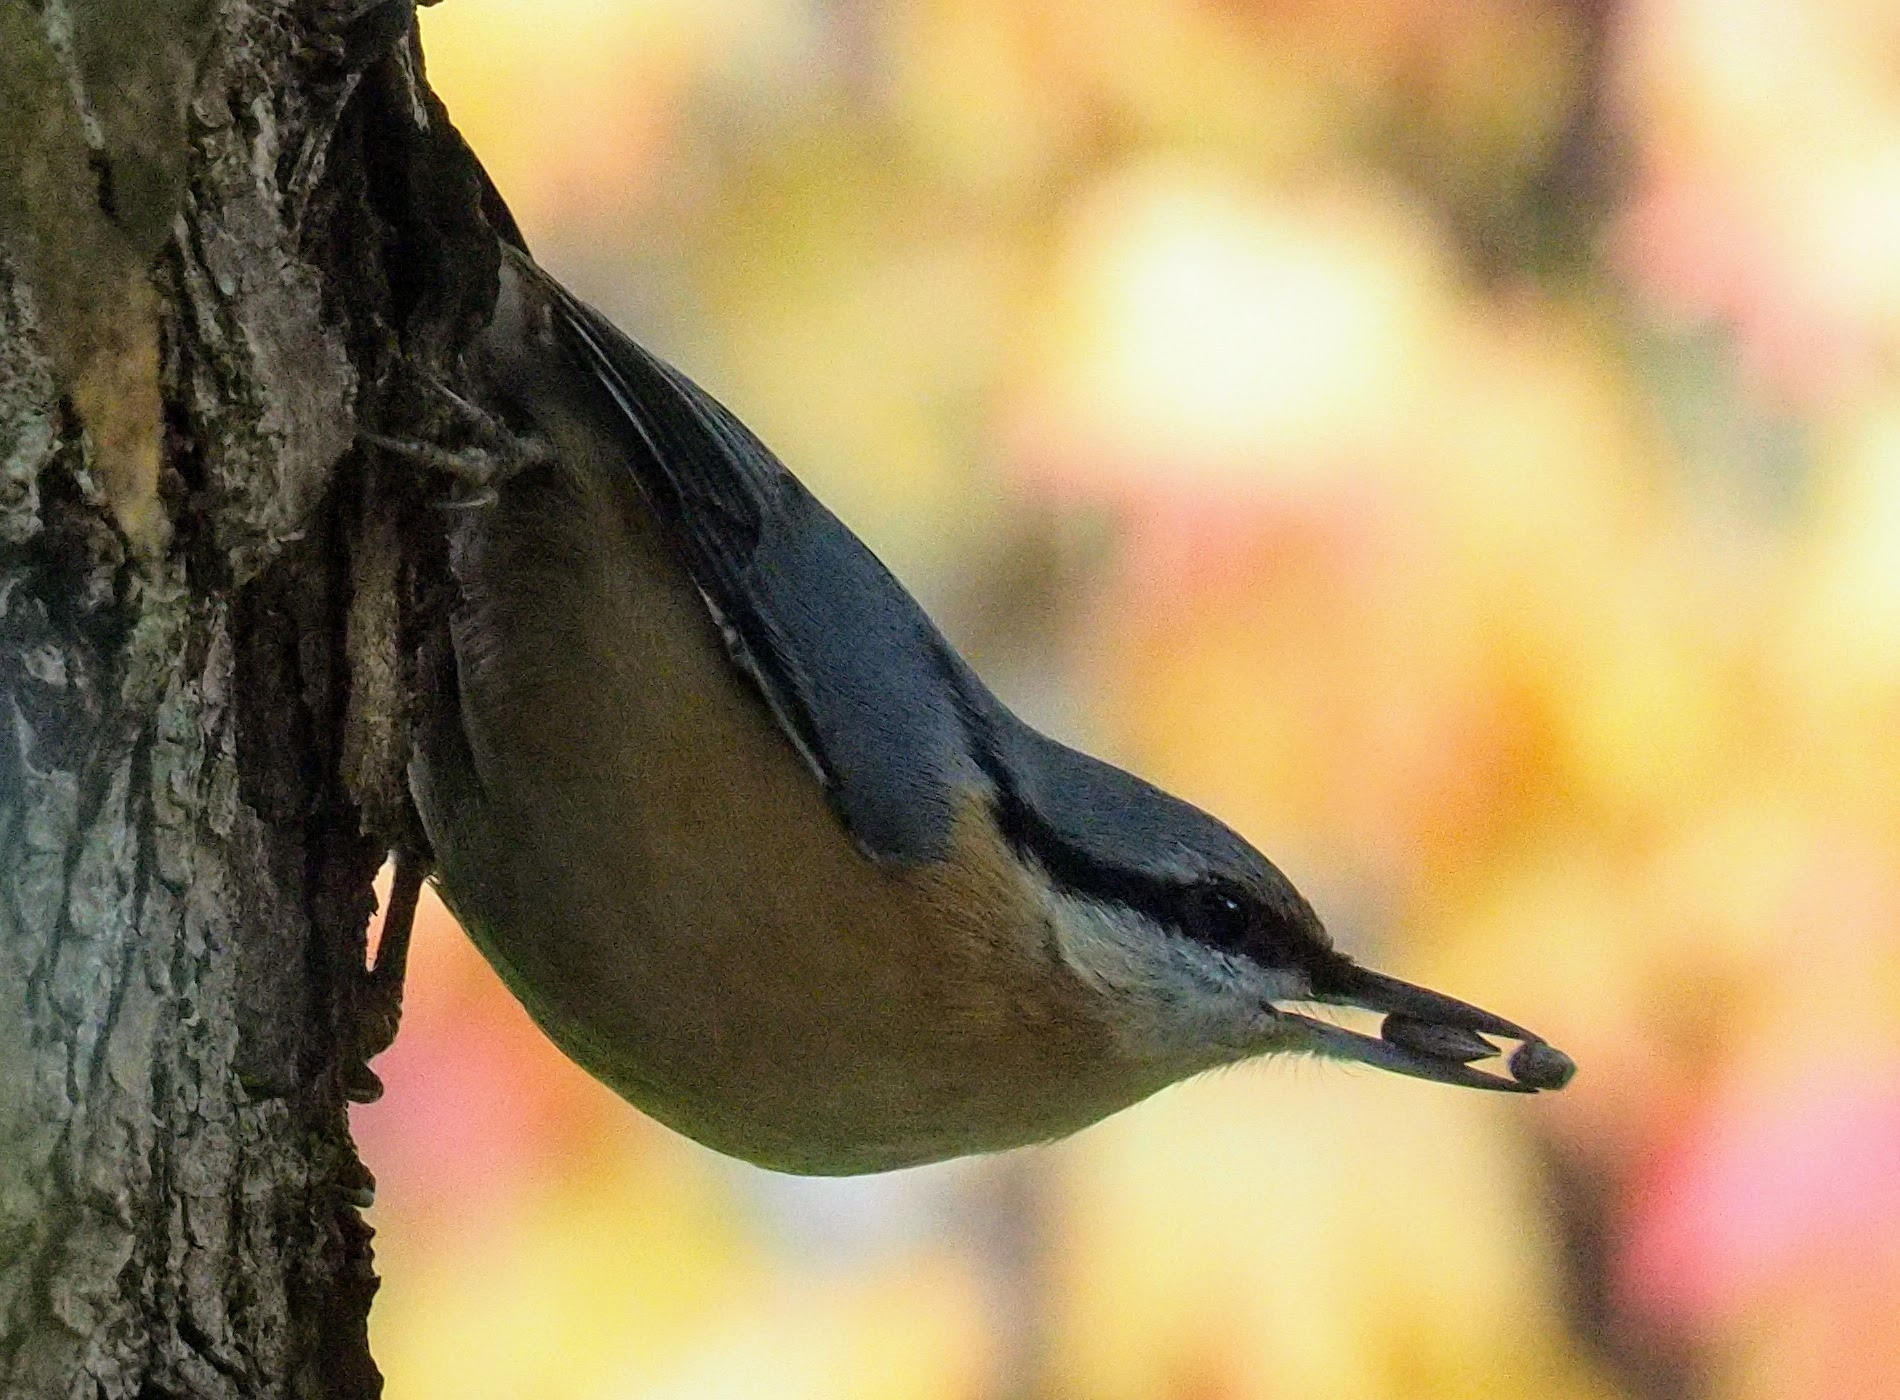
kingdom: Animalia
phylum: Chordata
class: Aves
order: Passeriformes
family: Sittidae
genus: Sitta
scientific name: Sitta europaea
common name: Eurasian nuthatch
